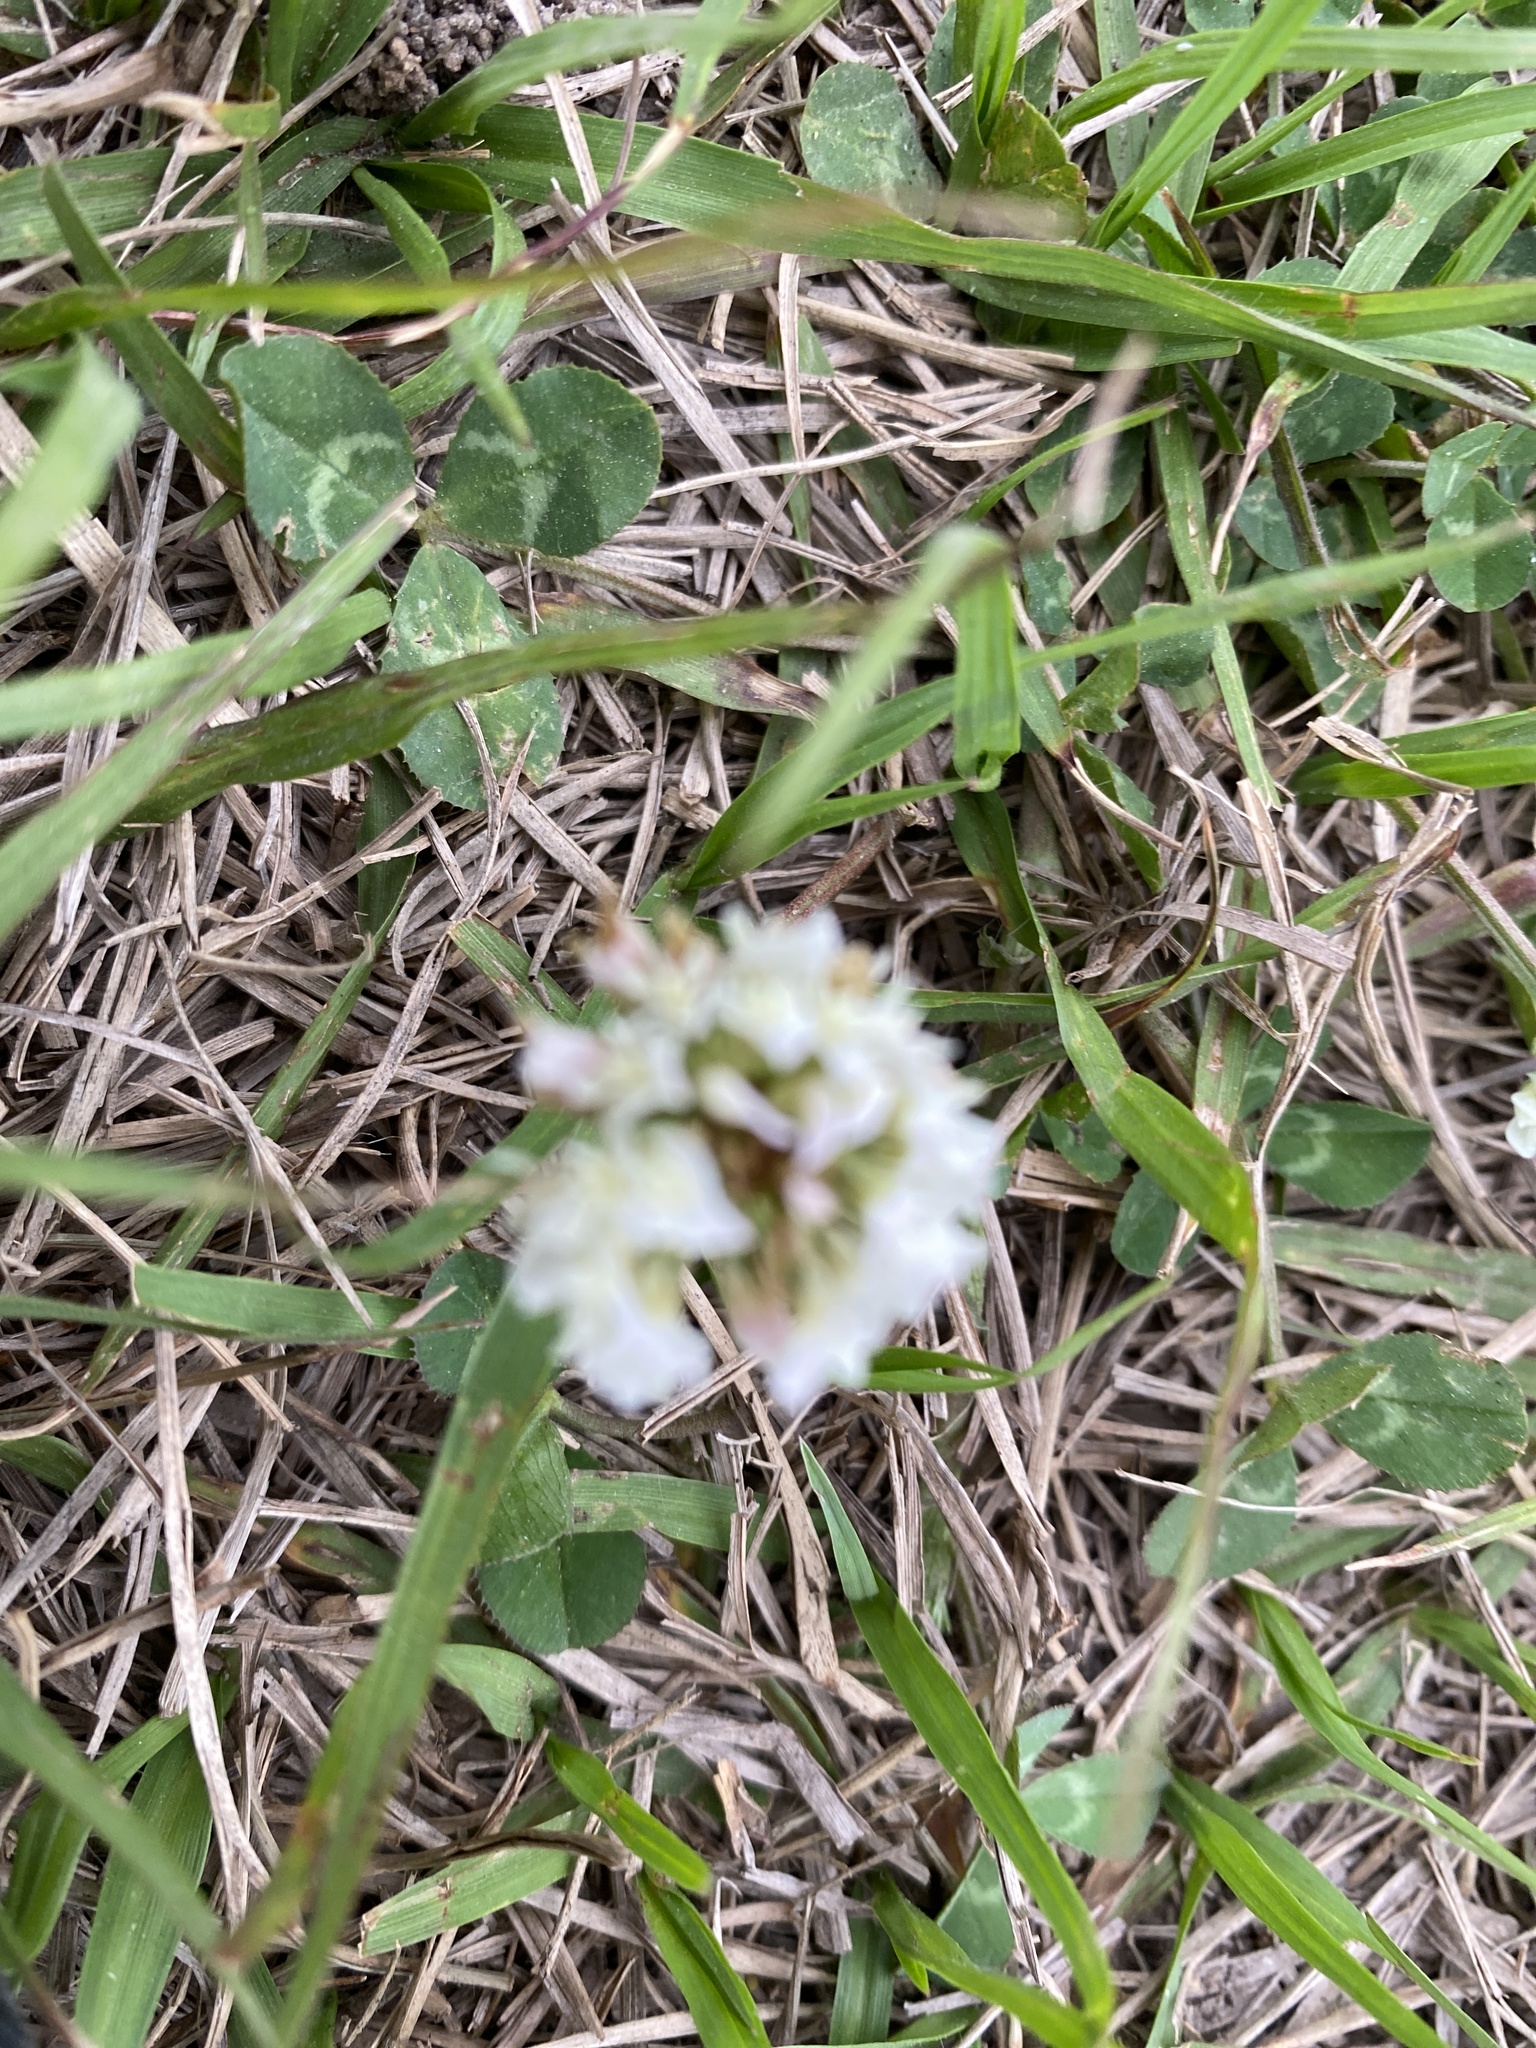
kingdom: Plantae
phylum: Tracheophyta
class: Magnoliopsida
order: Fabales
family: Fabaceae
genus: Trifolium
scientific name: Trifolium repens
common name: White clover
